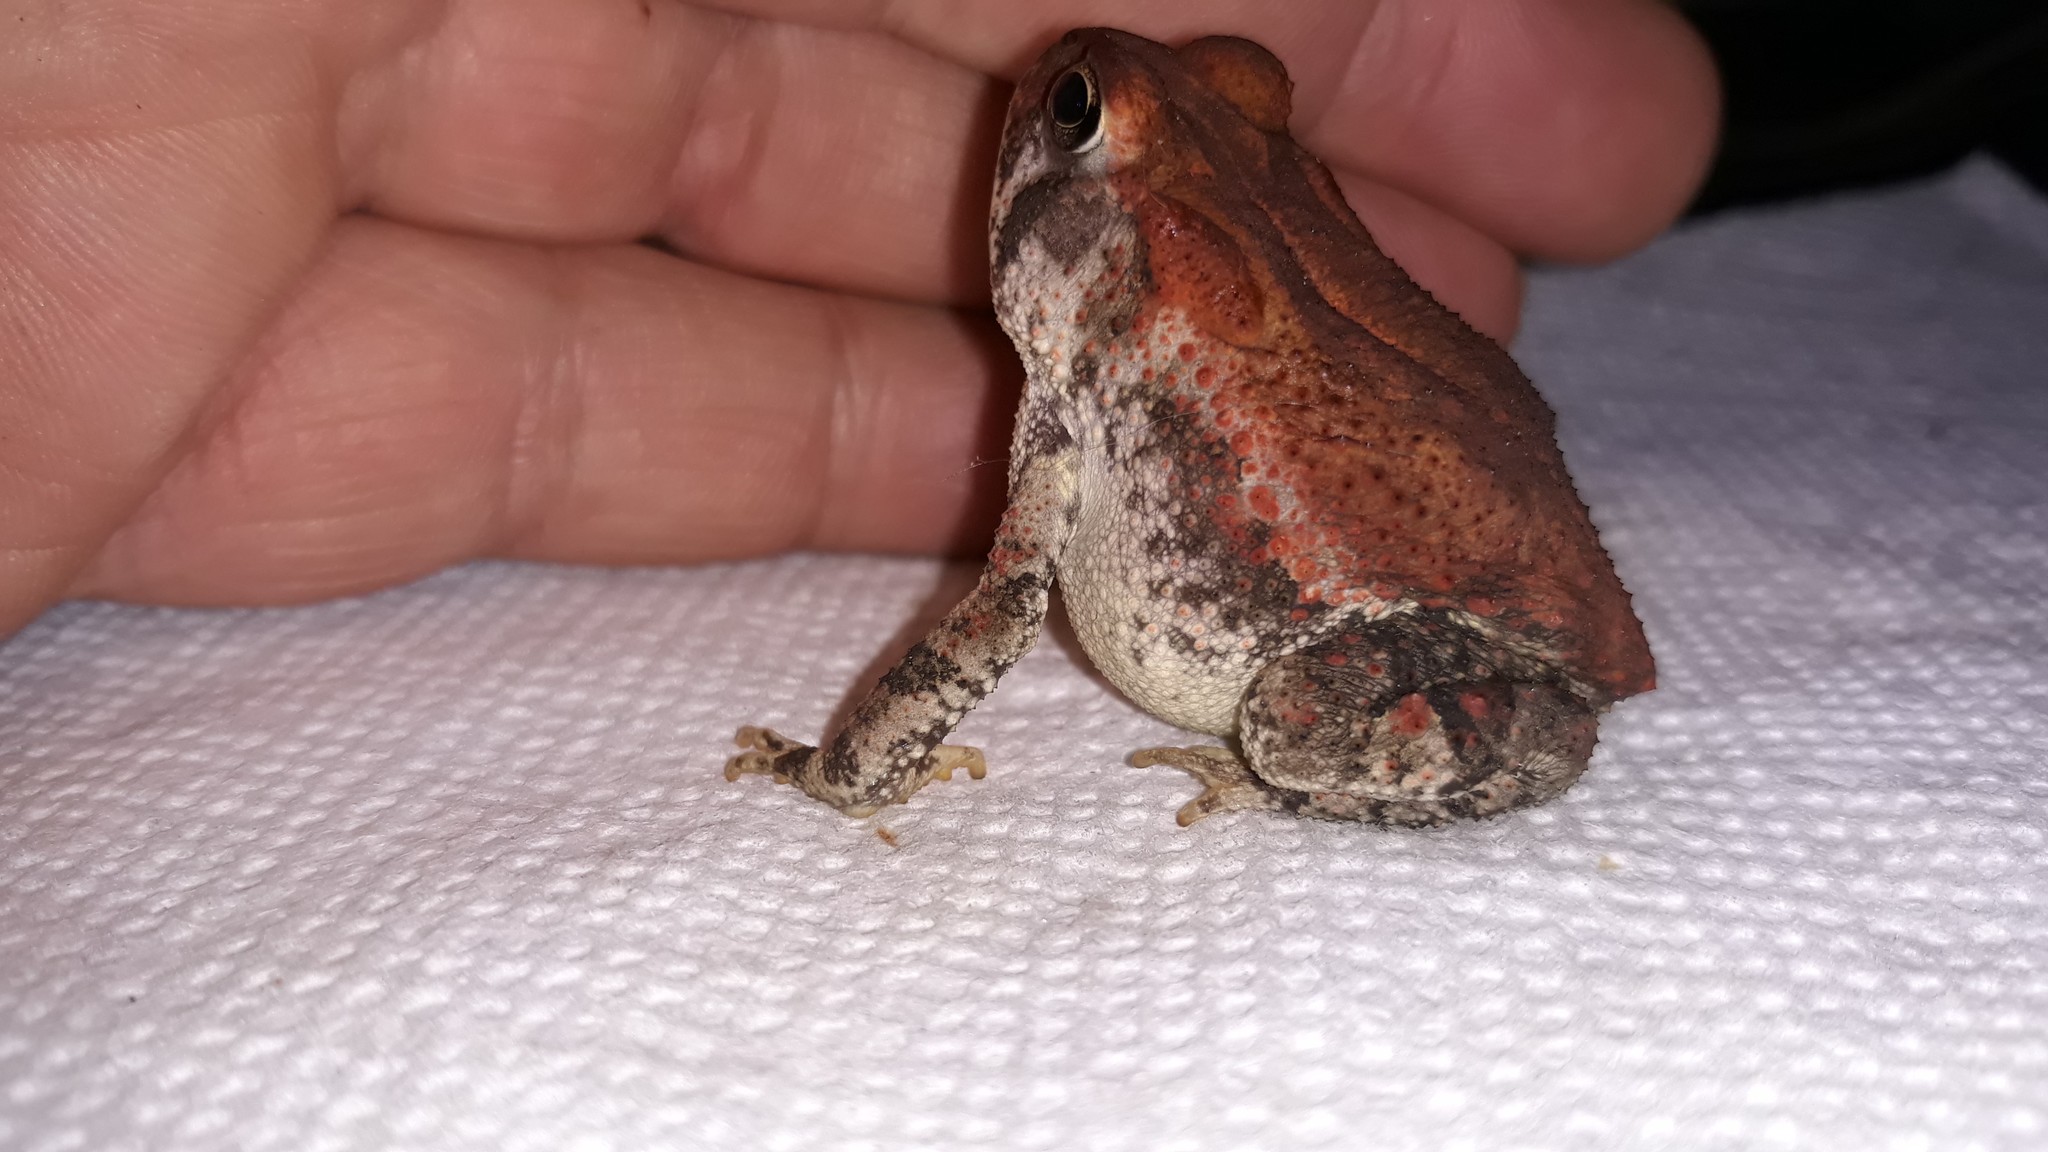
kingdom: Animalia
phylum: Chordata
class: Amphibia
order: Anura
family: Bufonidae
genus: Anaxyrus
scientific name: Anaxyrus fowleri
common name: Fowler's toad
